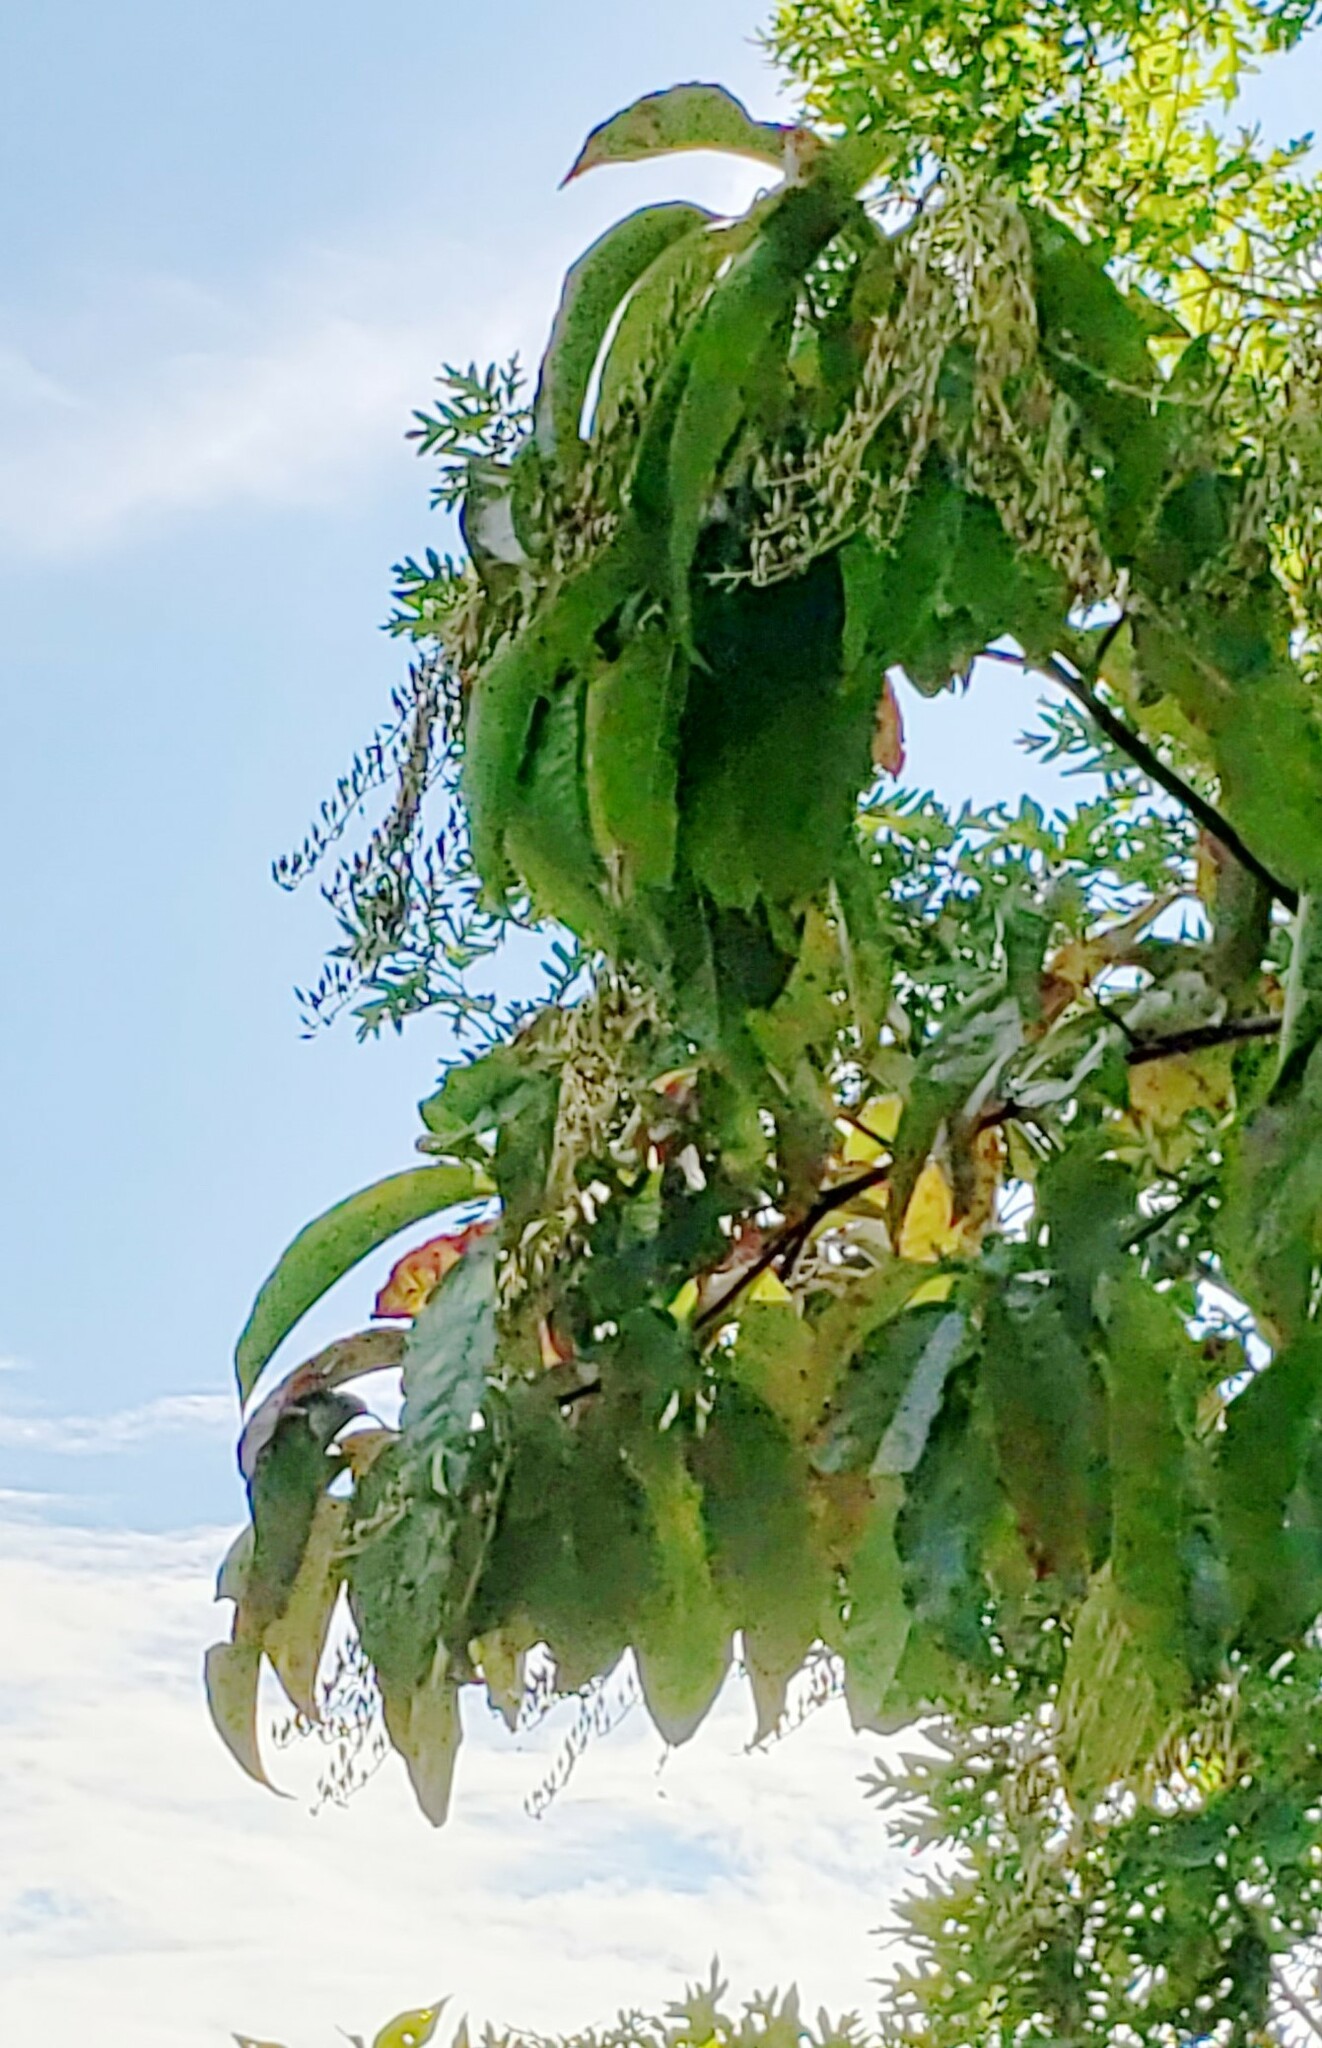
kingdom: Plantae
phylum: Tracheophyta
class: Magnoliopsida
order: Ericales
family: Ericaceae
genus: Oxydendrum
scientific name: Oxydendrum arboreum
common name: Sourwood
